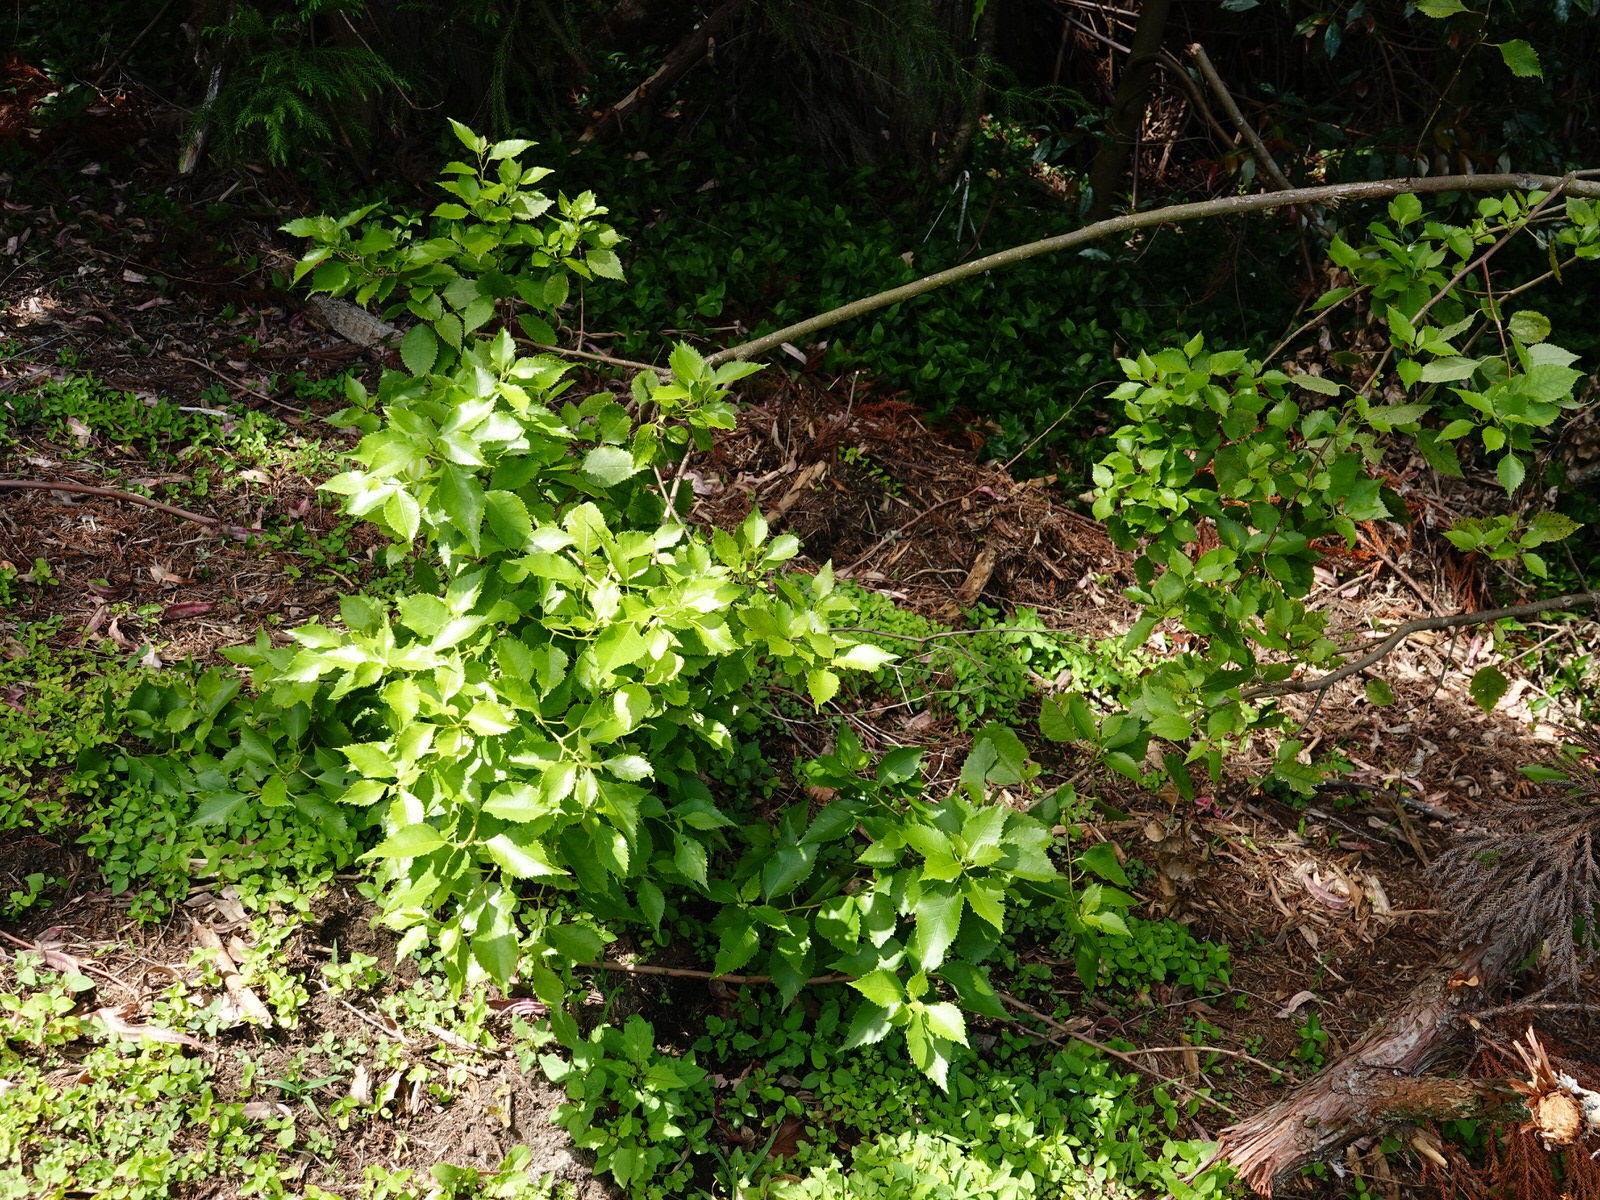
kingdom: Plantae
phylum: Tracheophyta
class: Magnoliopsida
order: Malvales
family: Malvaceae
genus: Hoheria
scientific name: Hoheria populnea
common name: Lacebark
